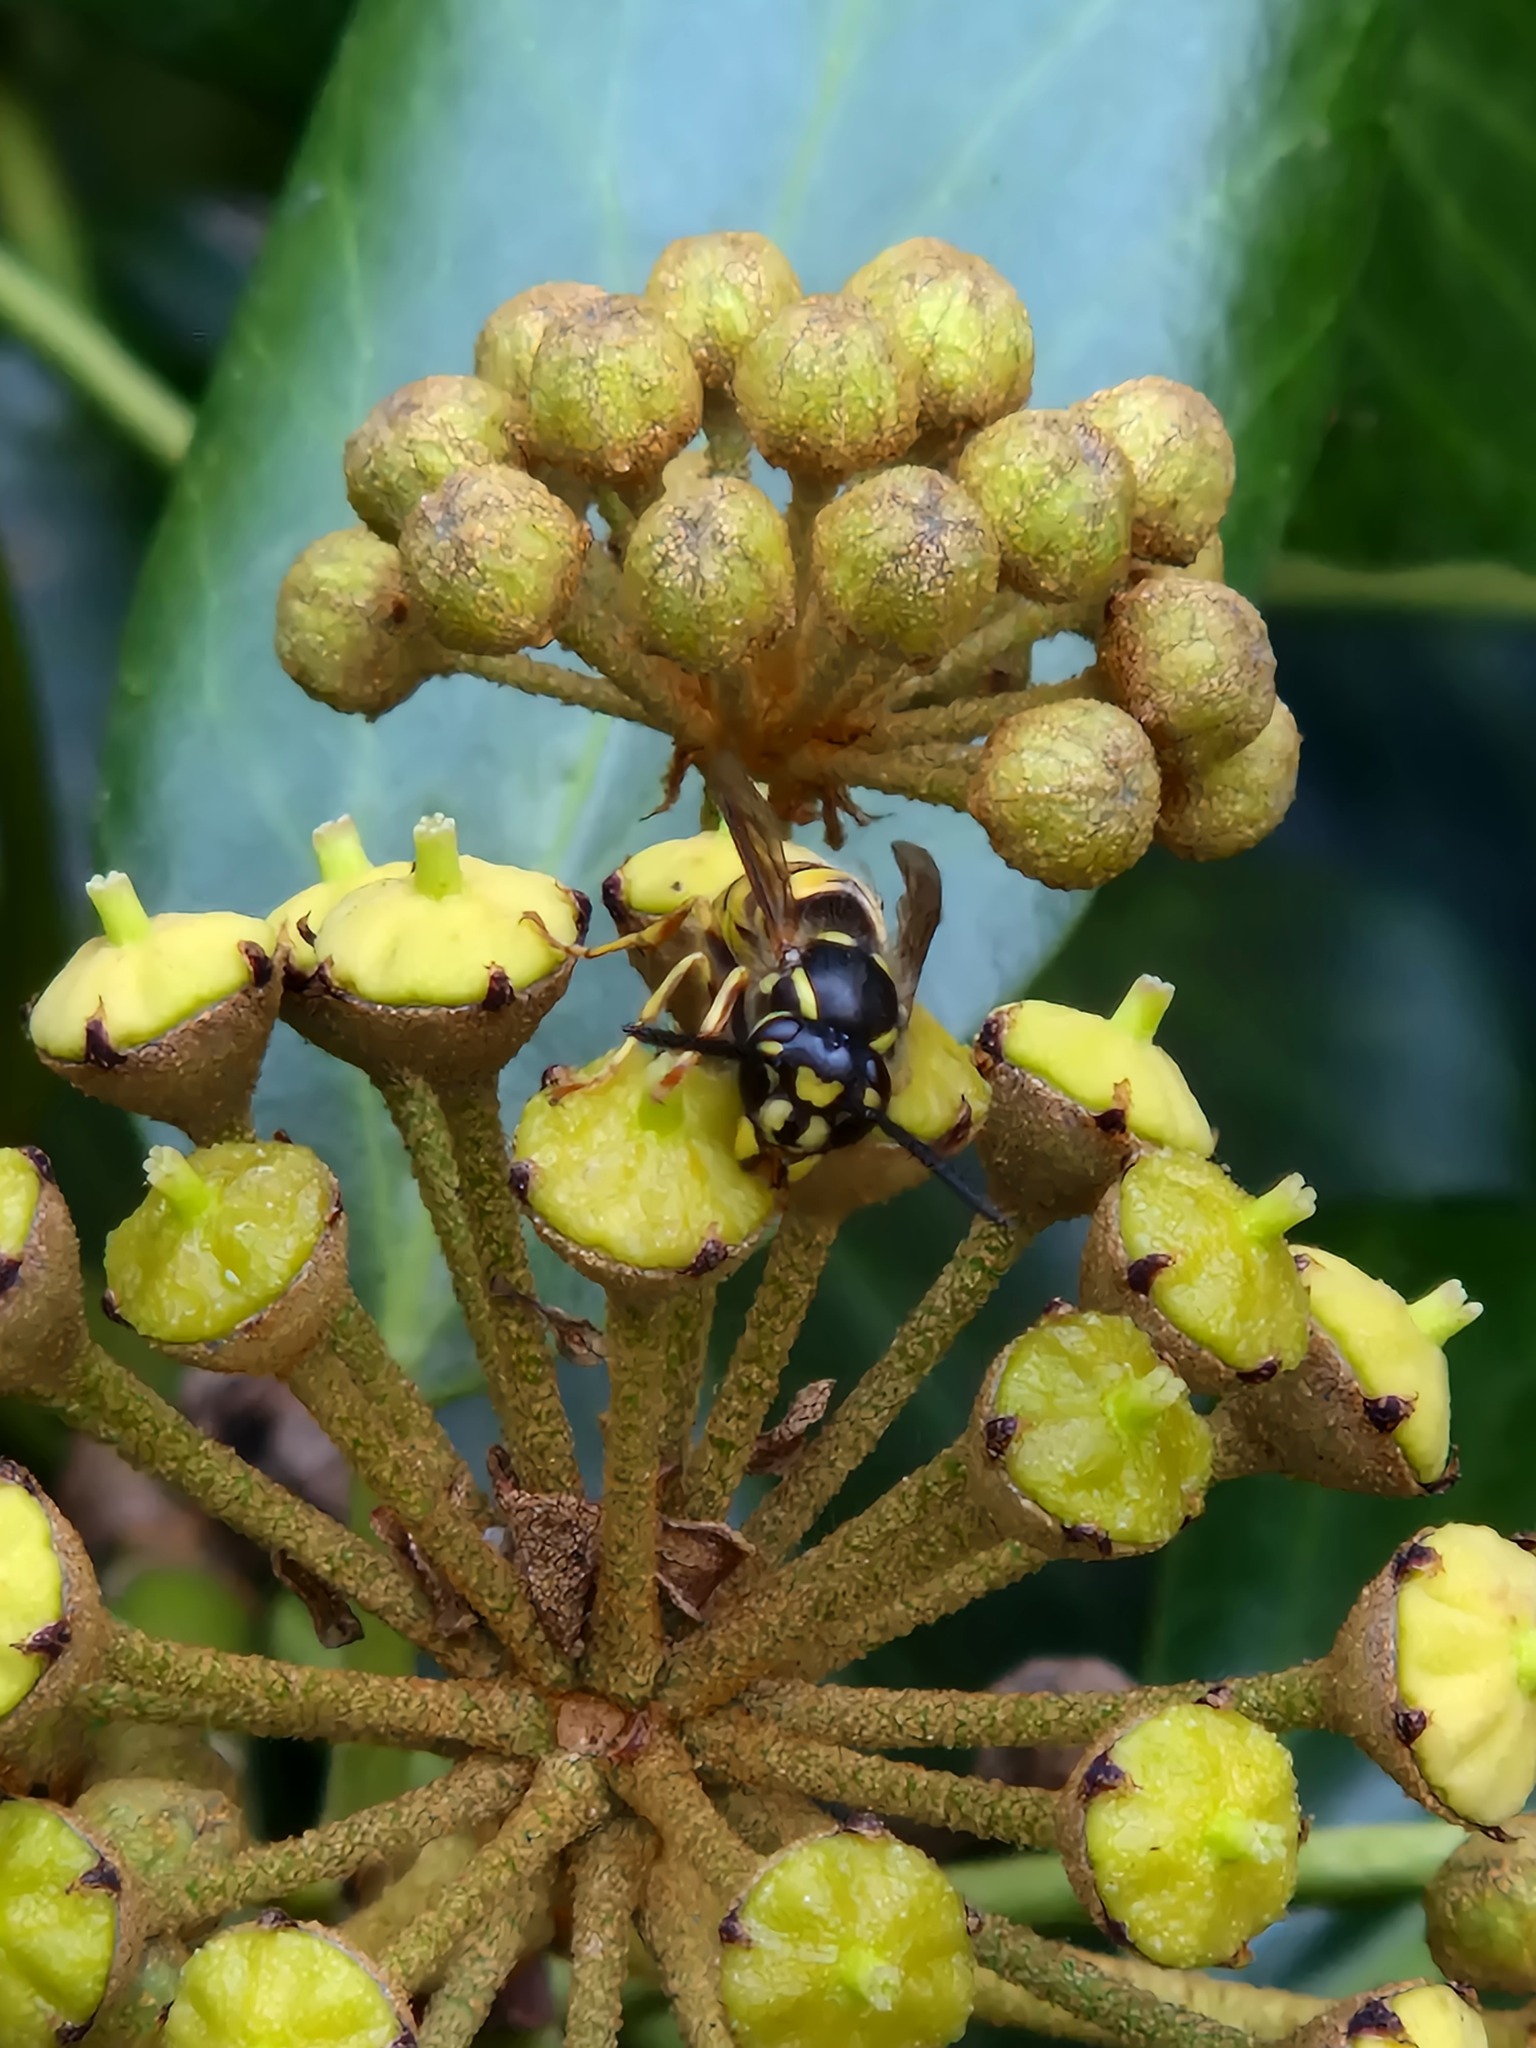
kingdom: Animalia
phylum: Arthropoda
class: Insecta
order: Hymenoptera
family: Vespidae
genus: Vespula
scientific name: Vespula vulgaris
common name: Common wasp
